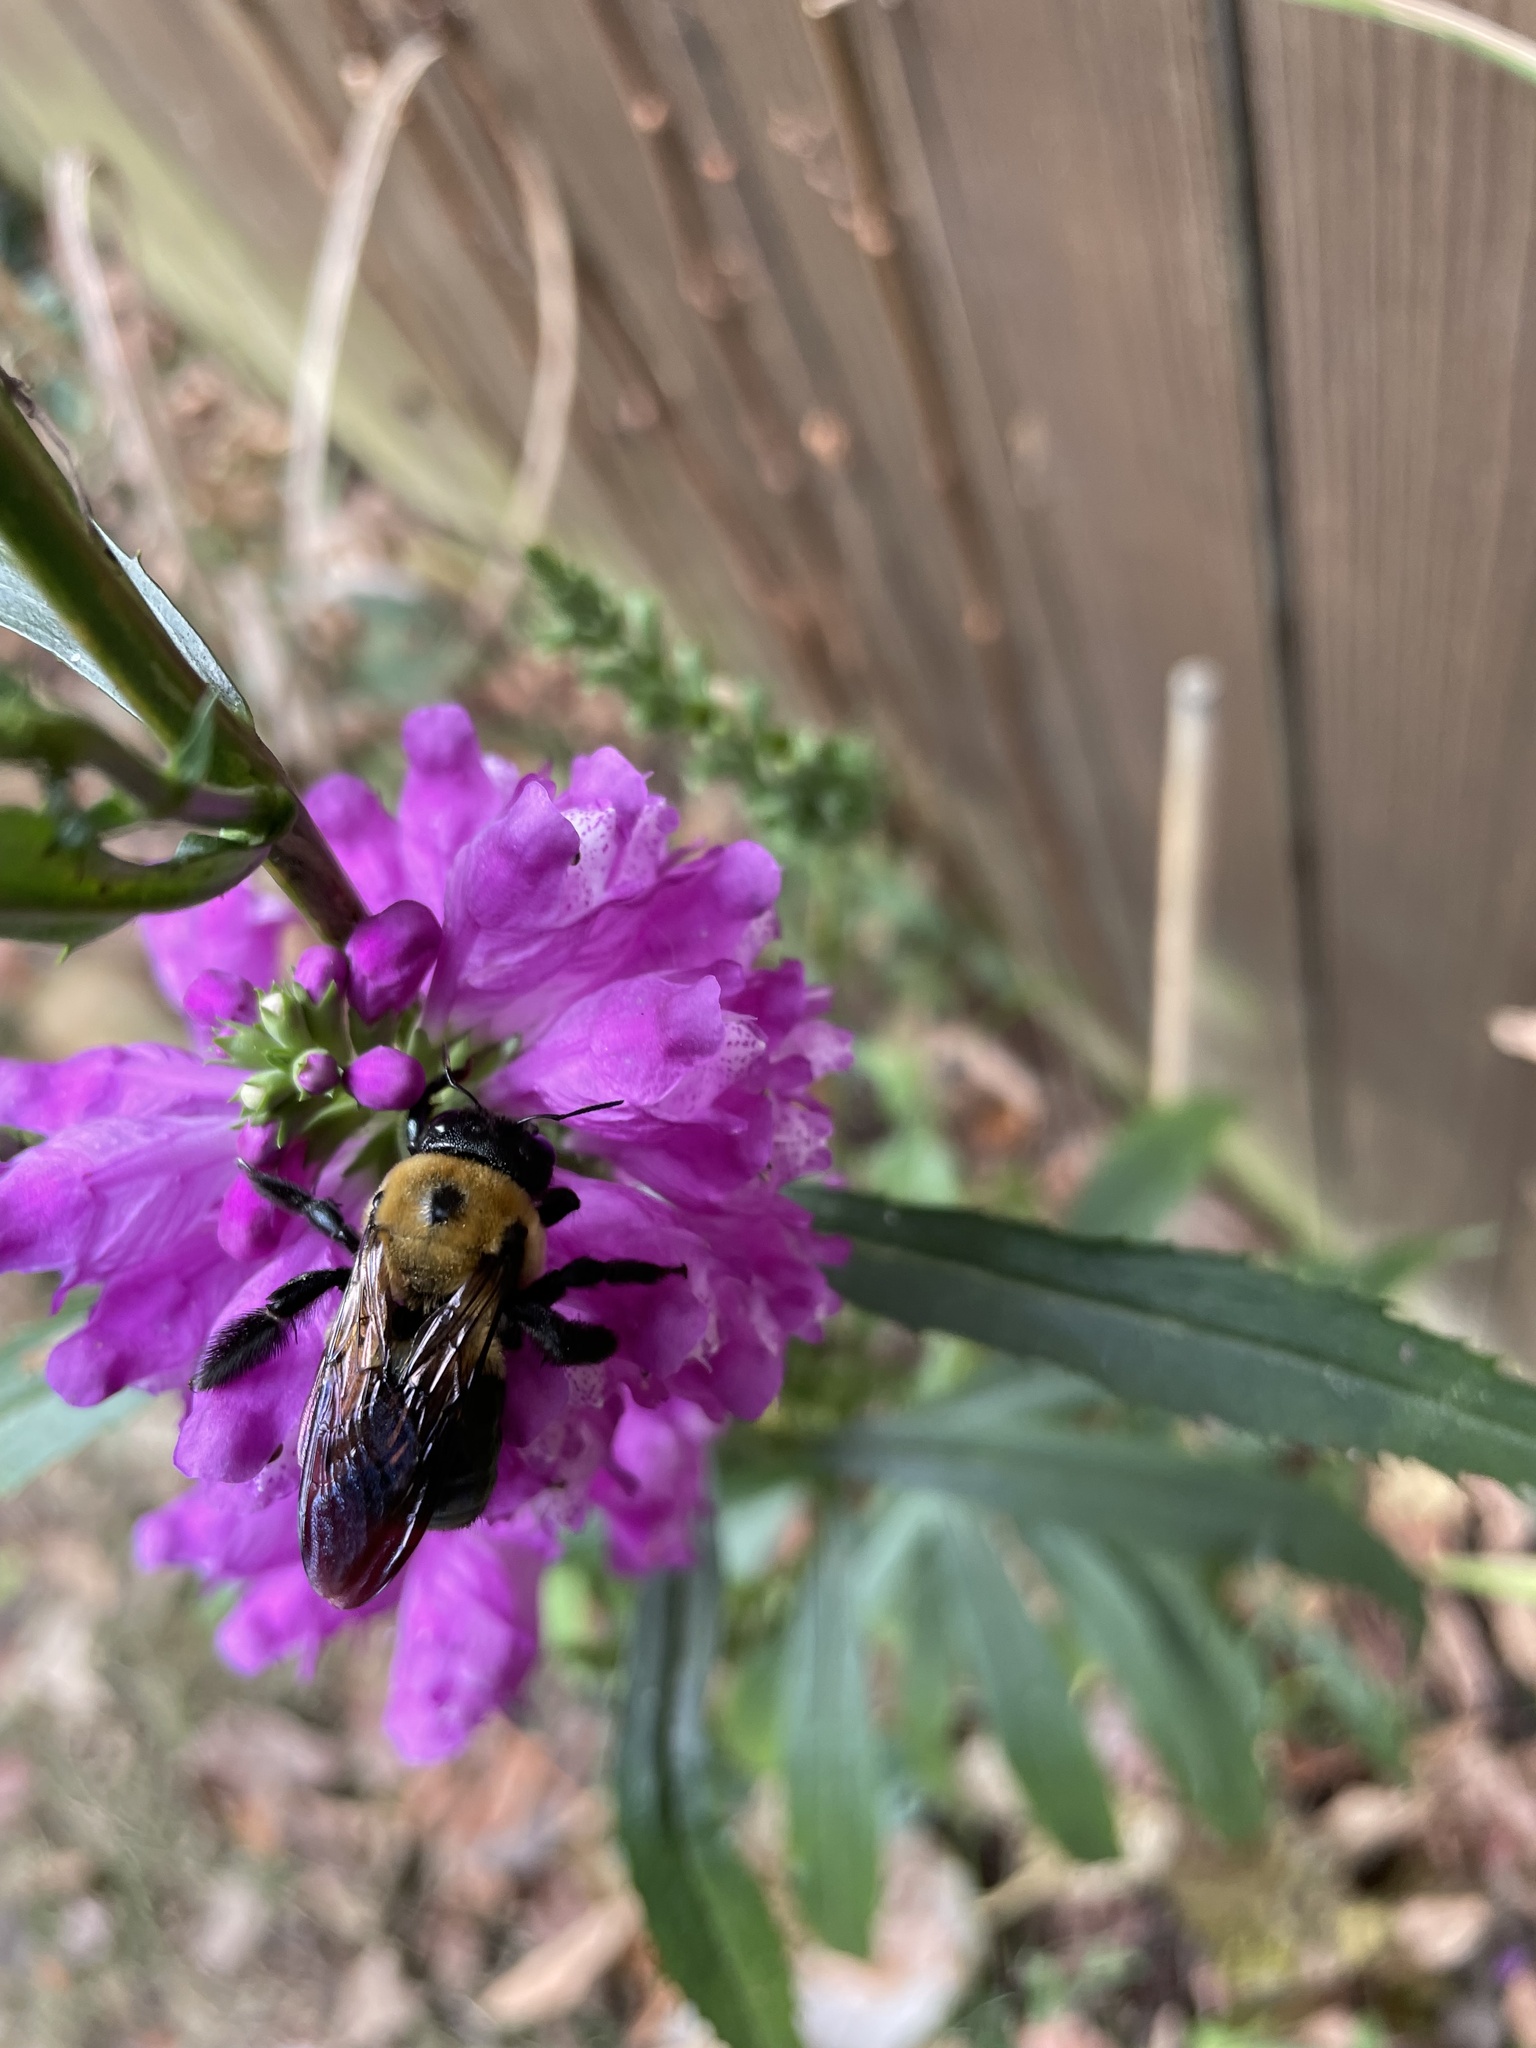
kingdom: Animalia
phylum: Arthropoda
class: Insecta
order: Hymenoptera
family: Apidae
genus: Xylocopa
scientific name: Xylocopa virginica
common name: Carpenter bee
